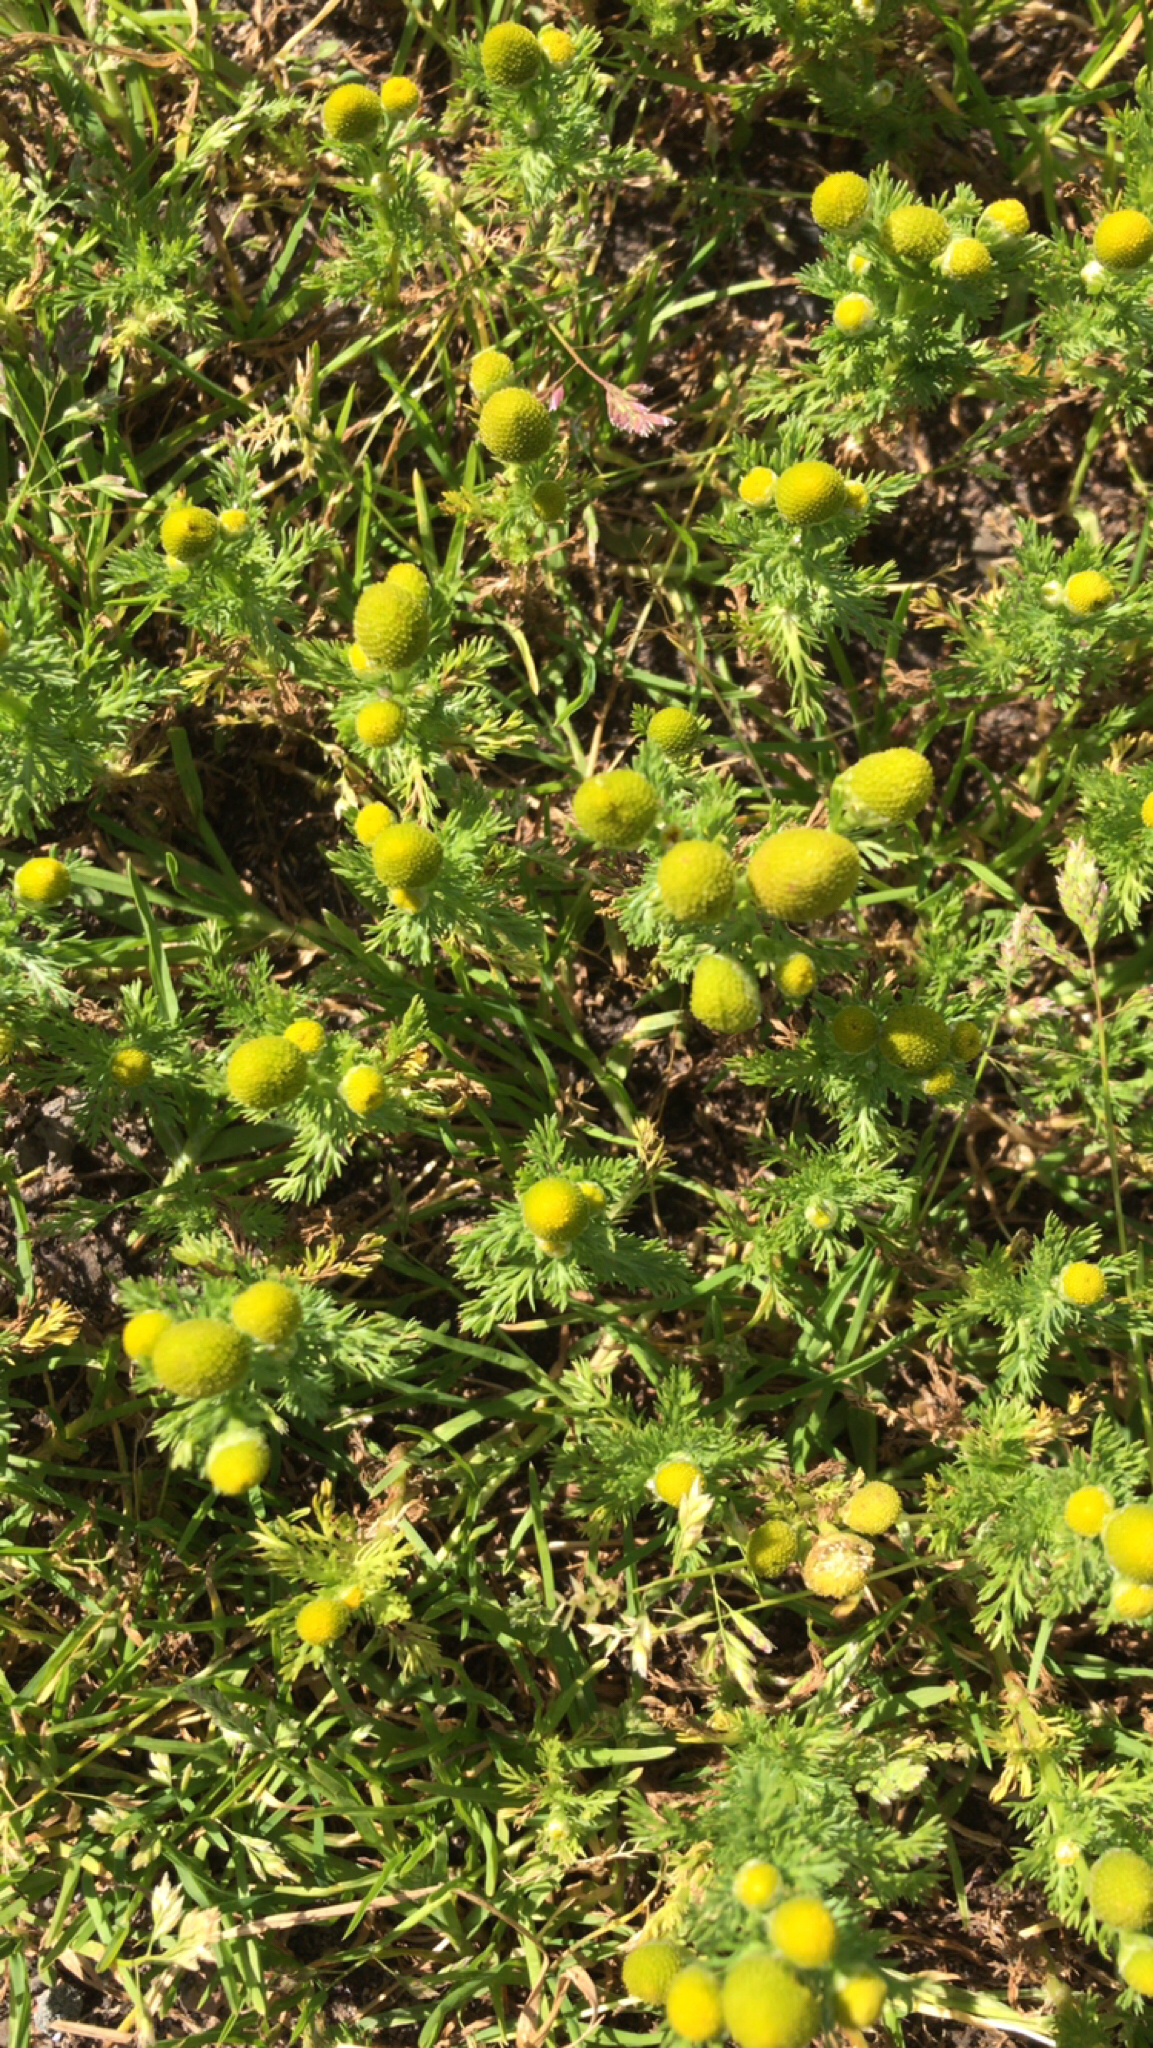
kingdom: Plantae
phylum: Tracheophyta
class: Magnoliopsida
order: Asterales
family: Asteraceae
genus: Matricaria
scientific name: Matricaria discoidea
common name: Disc mayweed
